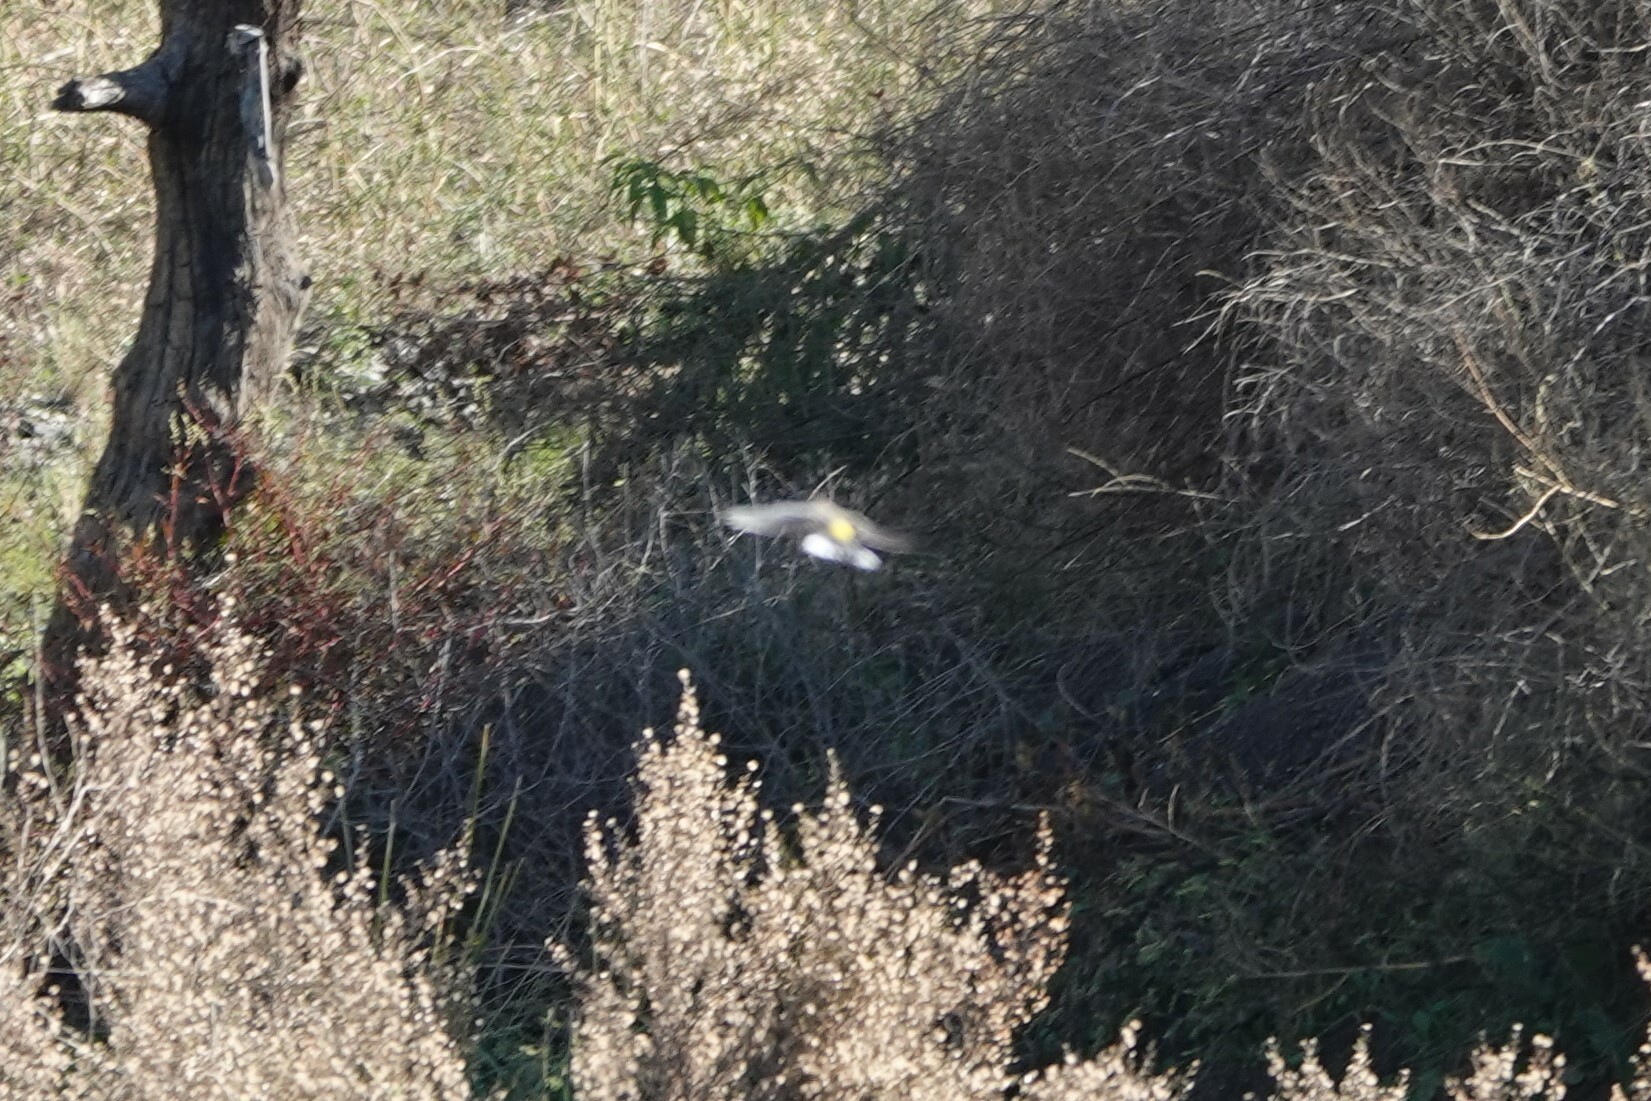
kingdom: Animalia
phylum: Chordata
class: Aves
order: Passeriformes
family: Parulidae
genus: Setophaga
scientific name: Setophaga coronata
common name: Myrtle warbler
